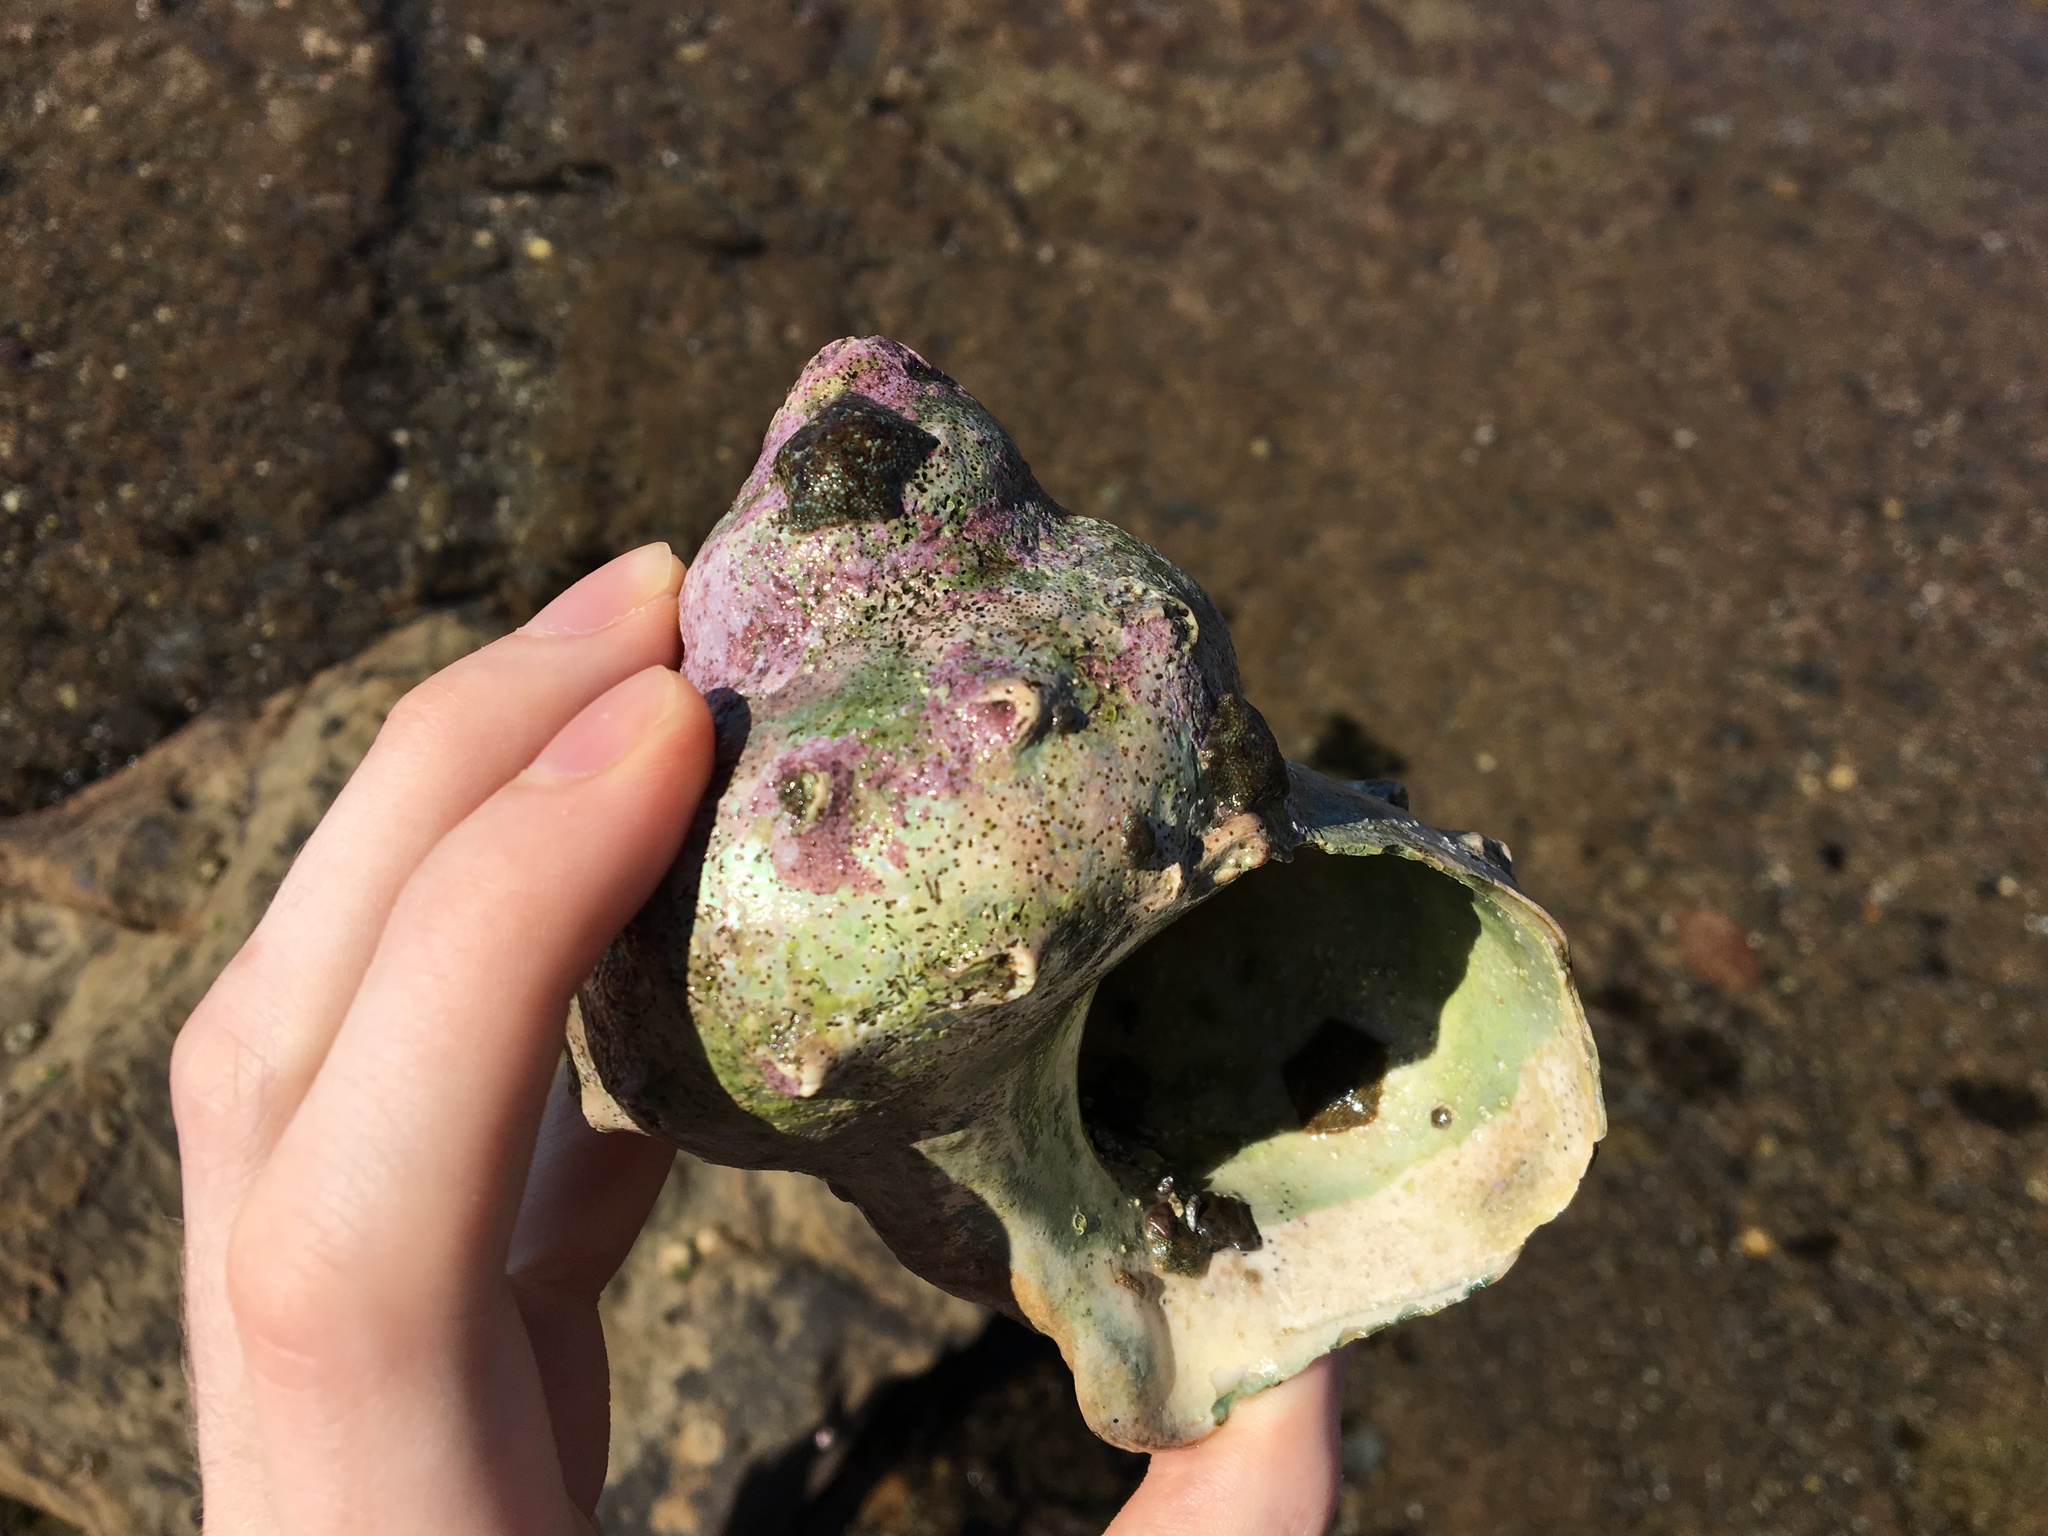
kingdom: Animalia
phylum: Mollusca
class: Gastropoda
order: Trochida
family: Turbinidae
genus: Turbo
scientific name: Turbo militaris
